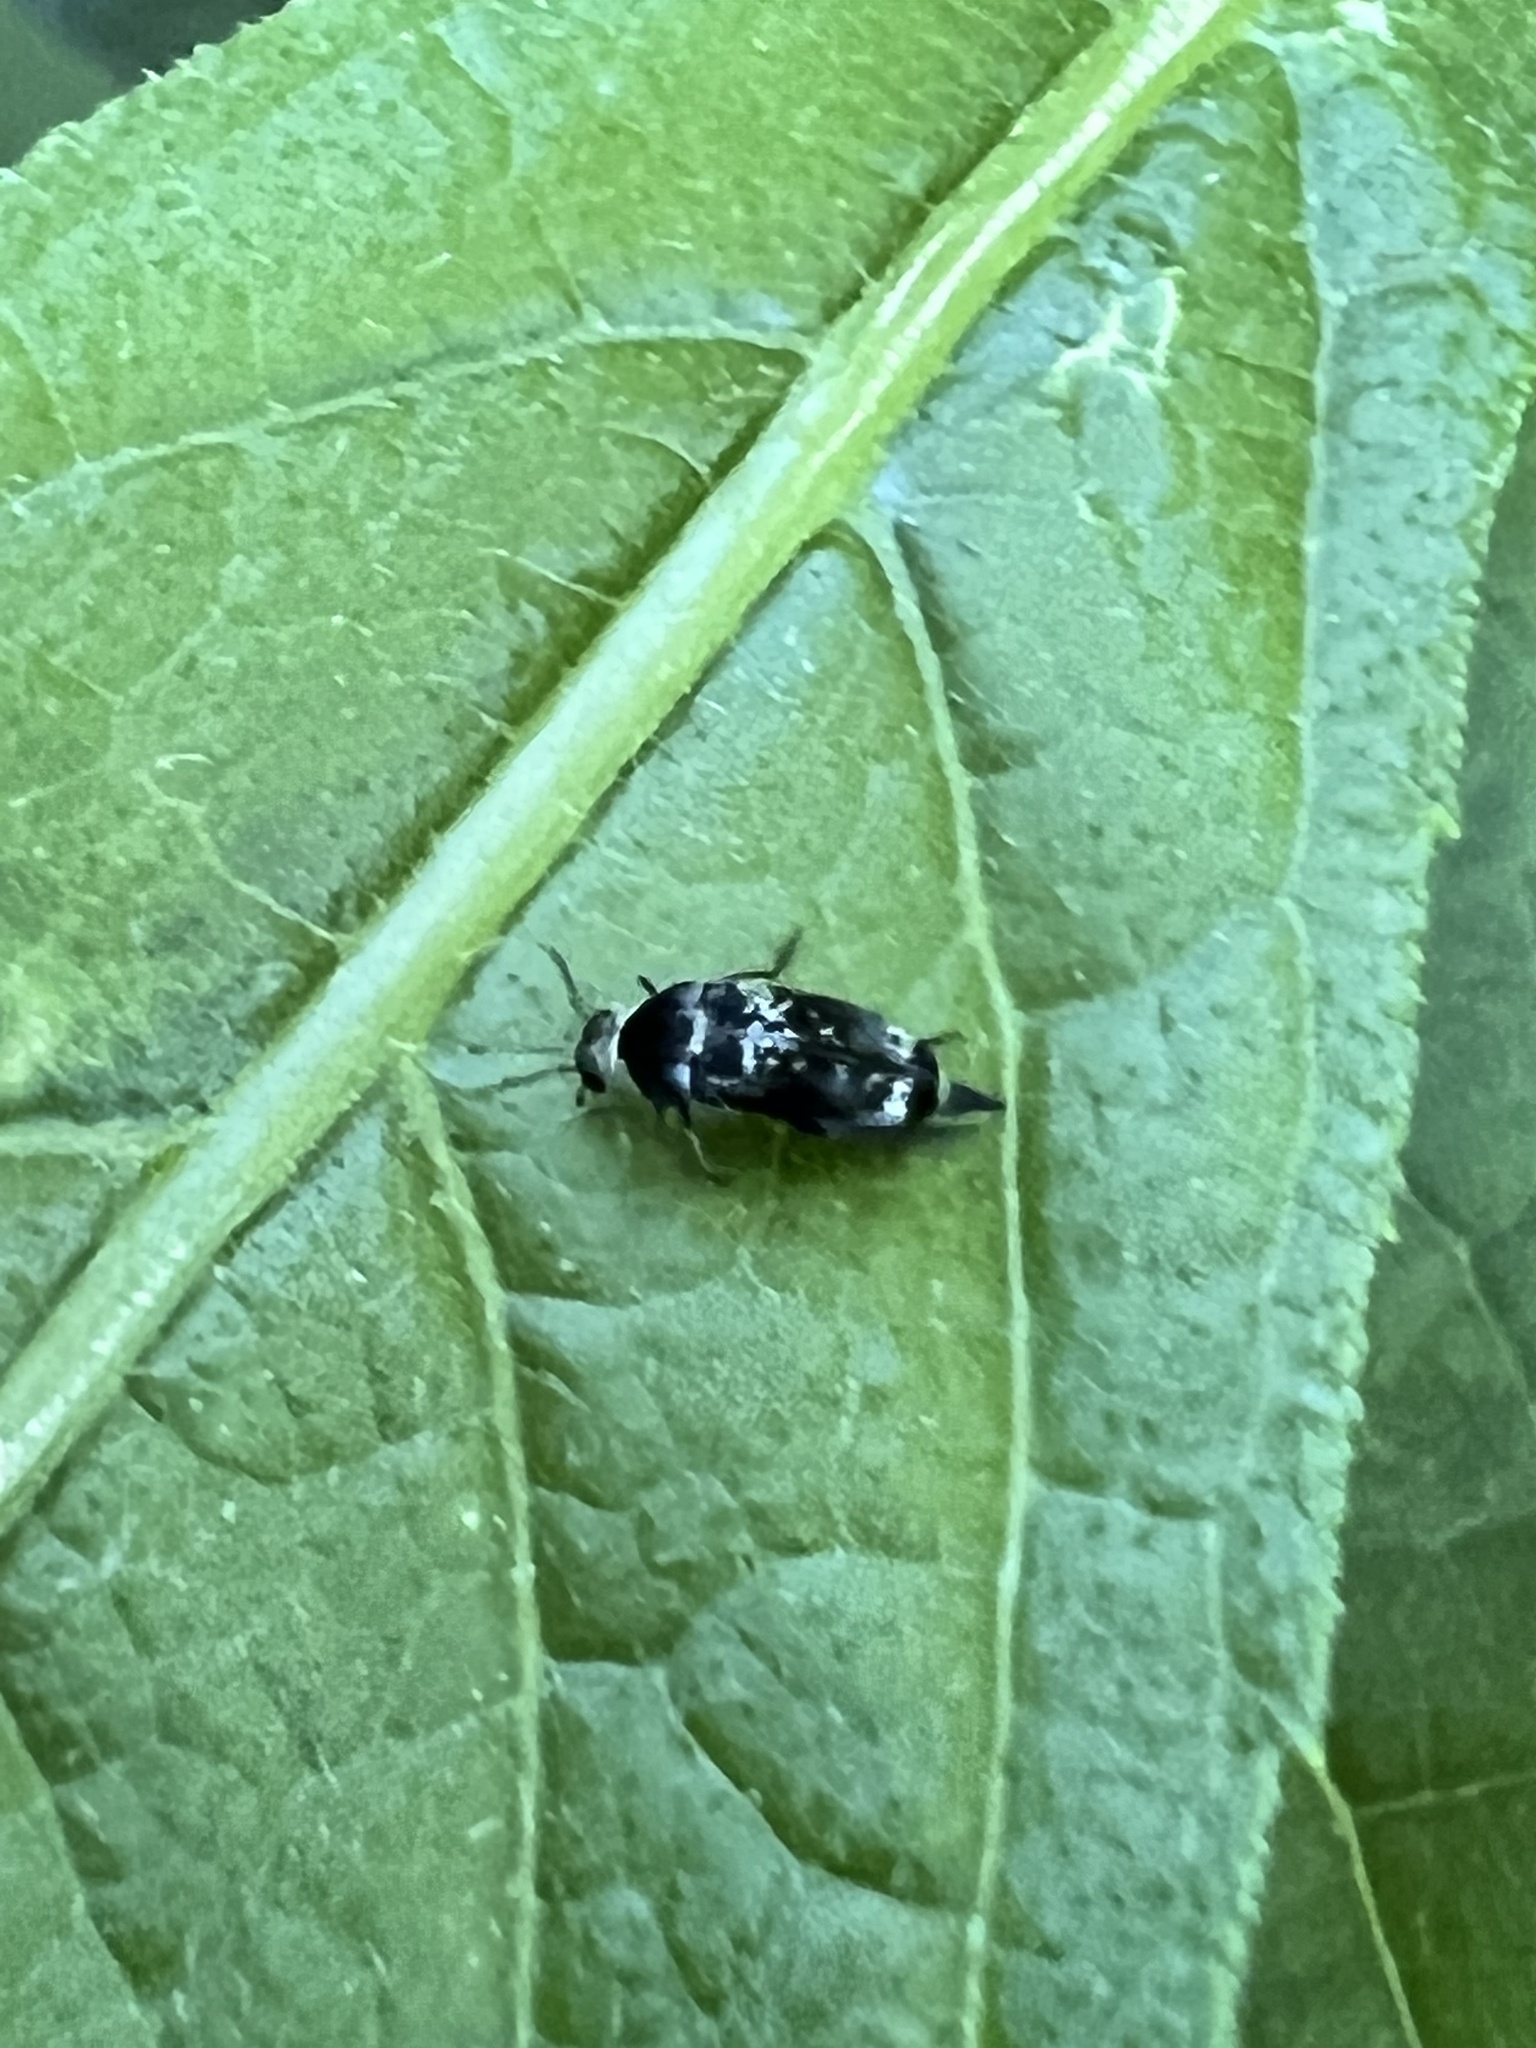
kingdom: Animalia
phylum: Arthropoda
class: Insecta
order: Coleoptera
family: Mordellidae
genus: Mordella
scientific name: Mordella marginata
